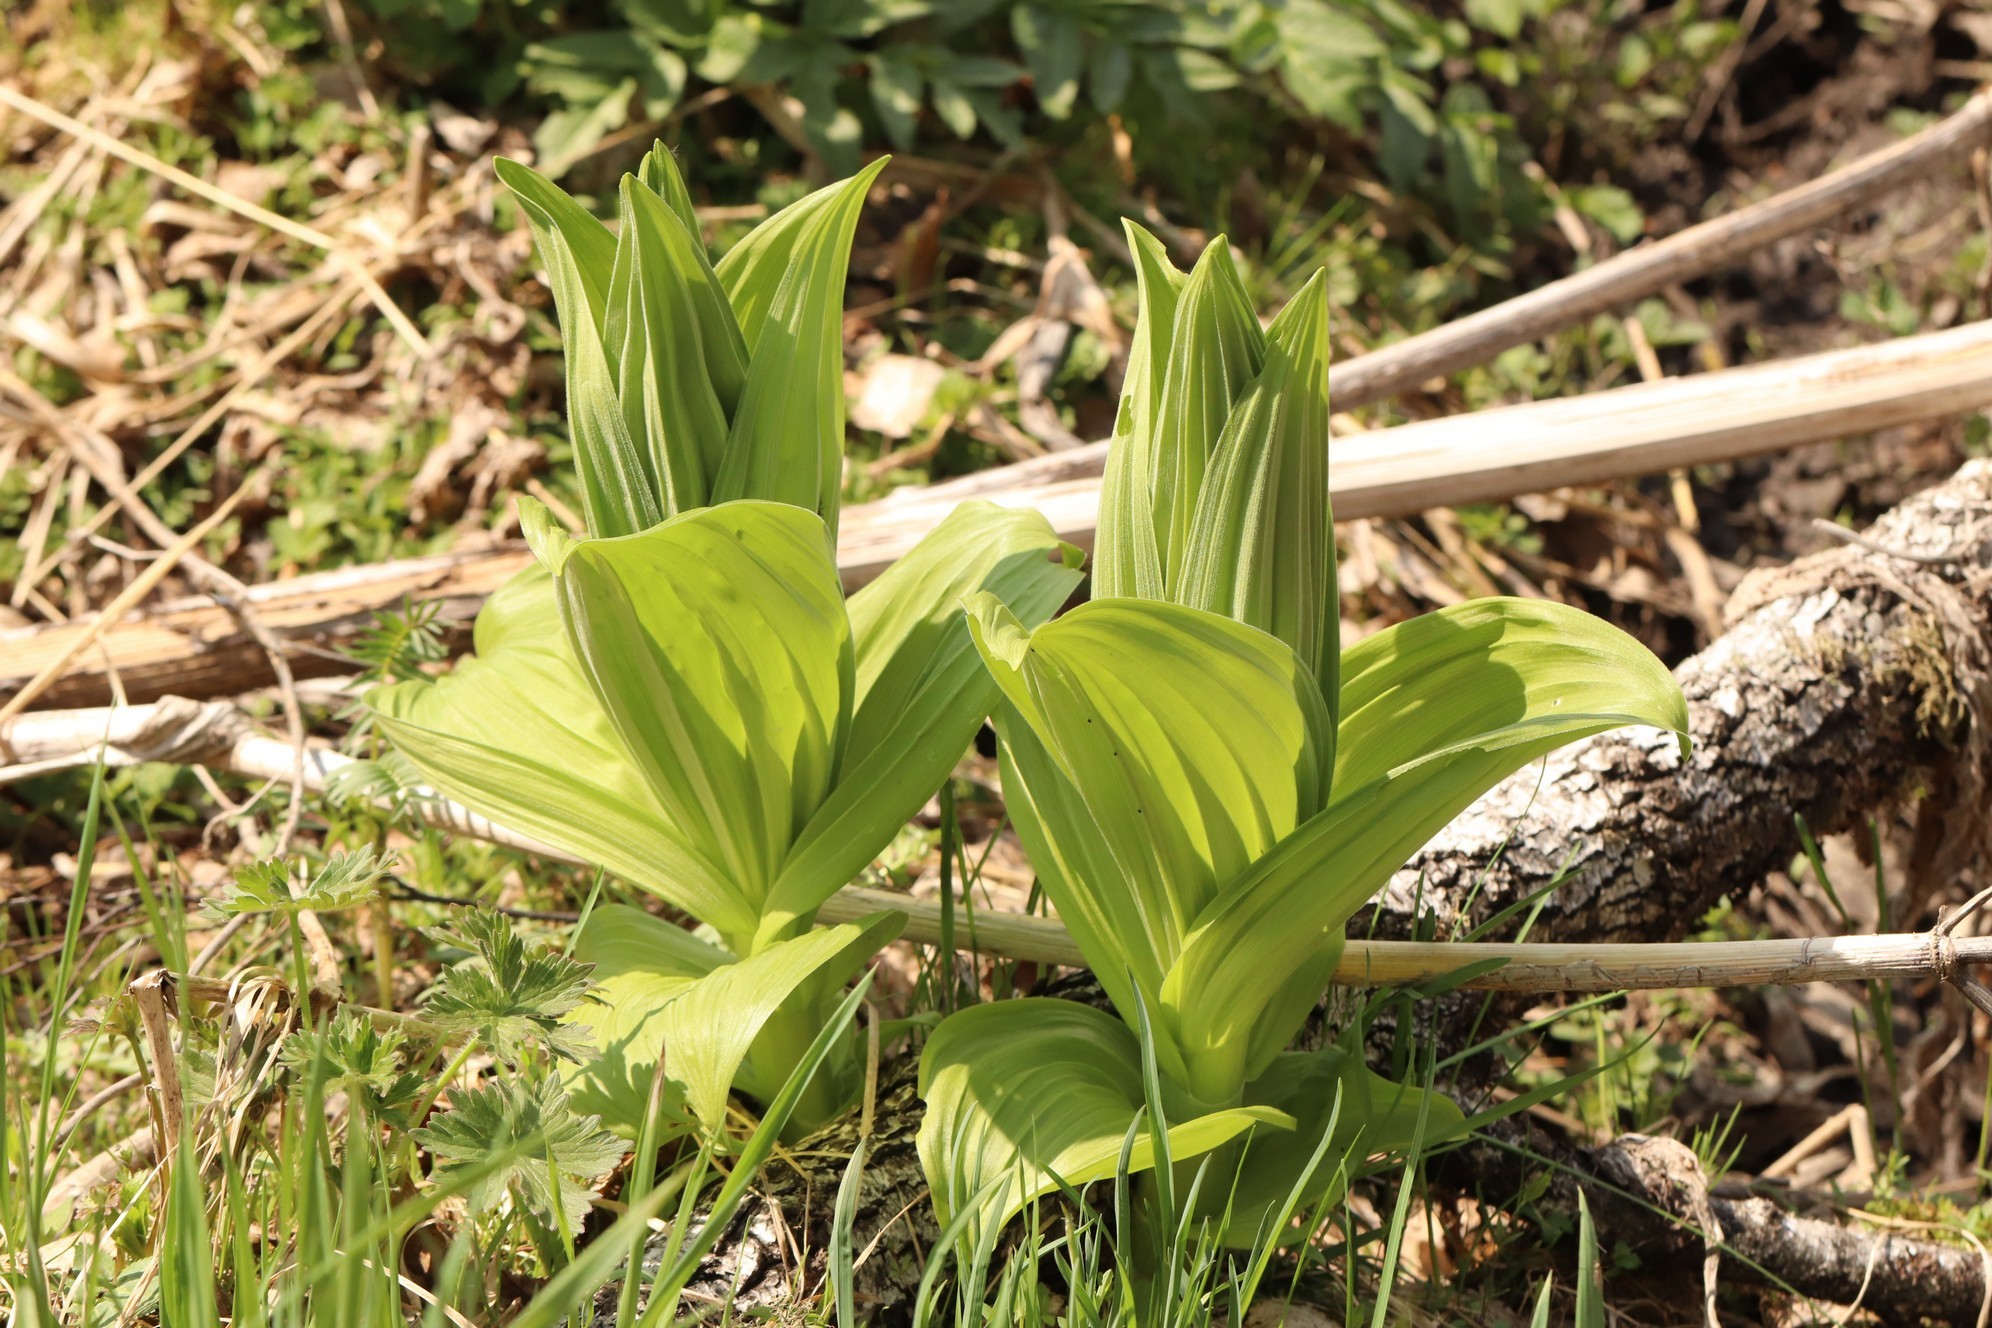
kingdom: Plantae
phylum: Tracheophyta
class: Liliopsida
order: Liliales
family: Melanthiaceae
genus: Veratrum
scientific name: Veratrum lobelianum
